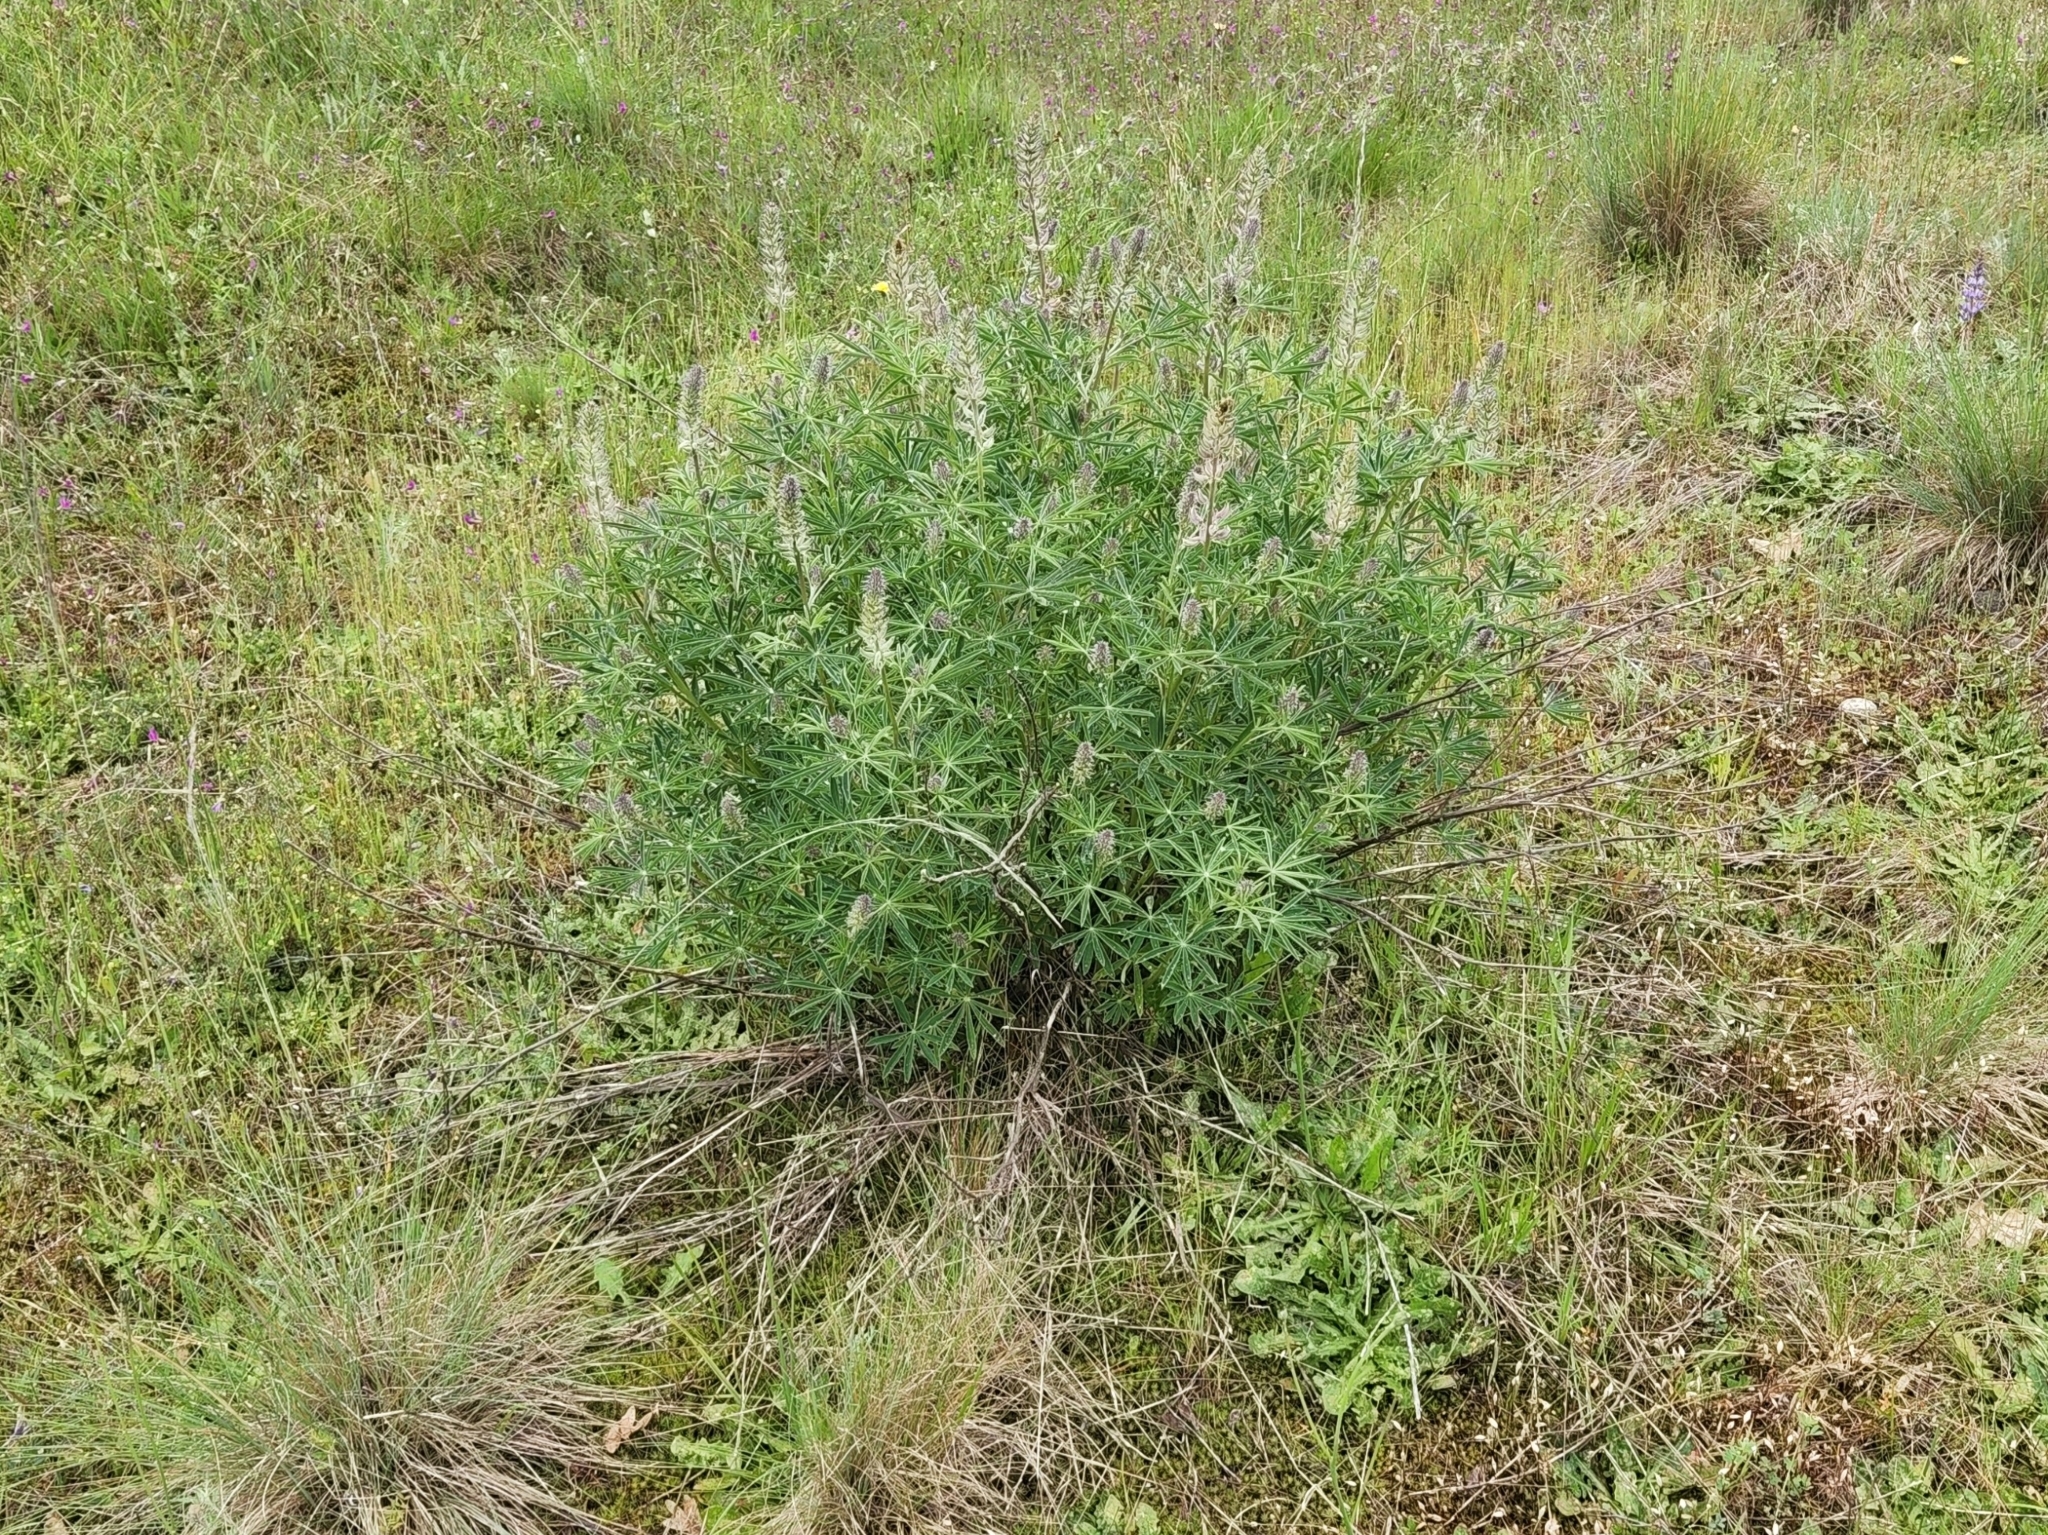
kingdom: Plantae
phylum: Tracheophyta
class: Magnoliopsida
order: Fabales
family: Fabaceae
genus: Lupinus
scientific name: Lupinus albicaulis
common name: Pine lupine
